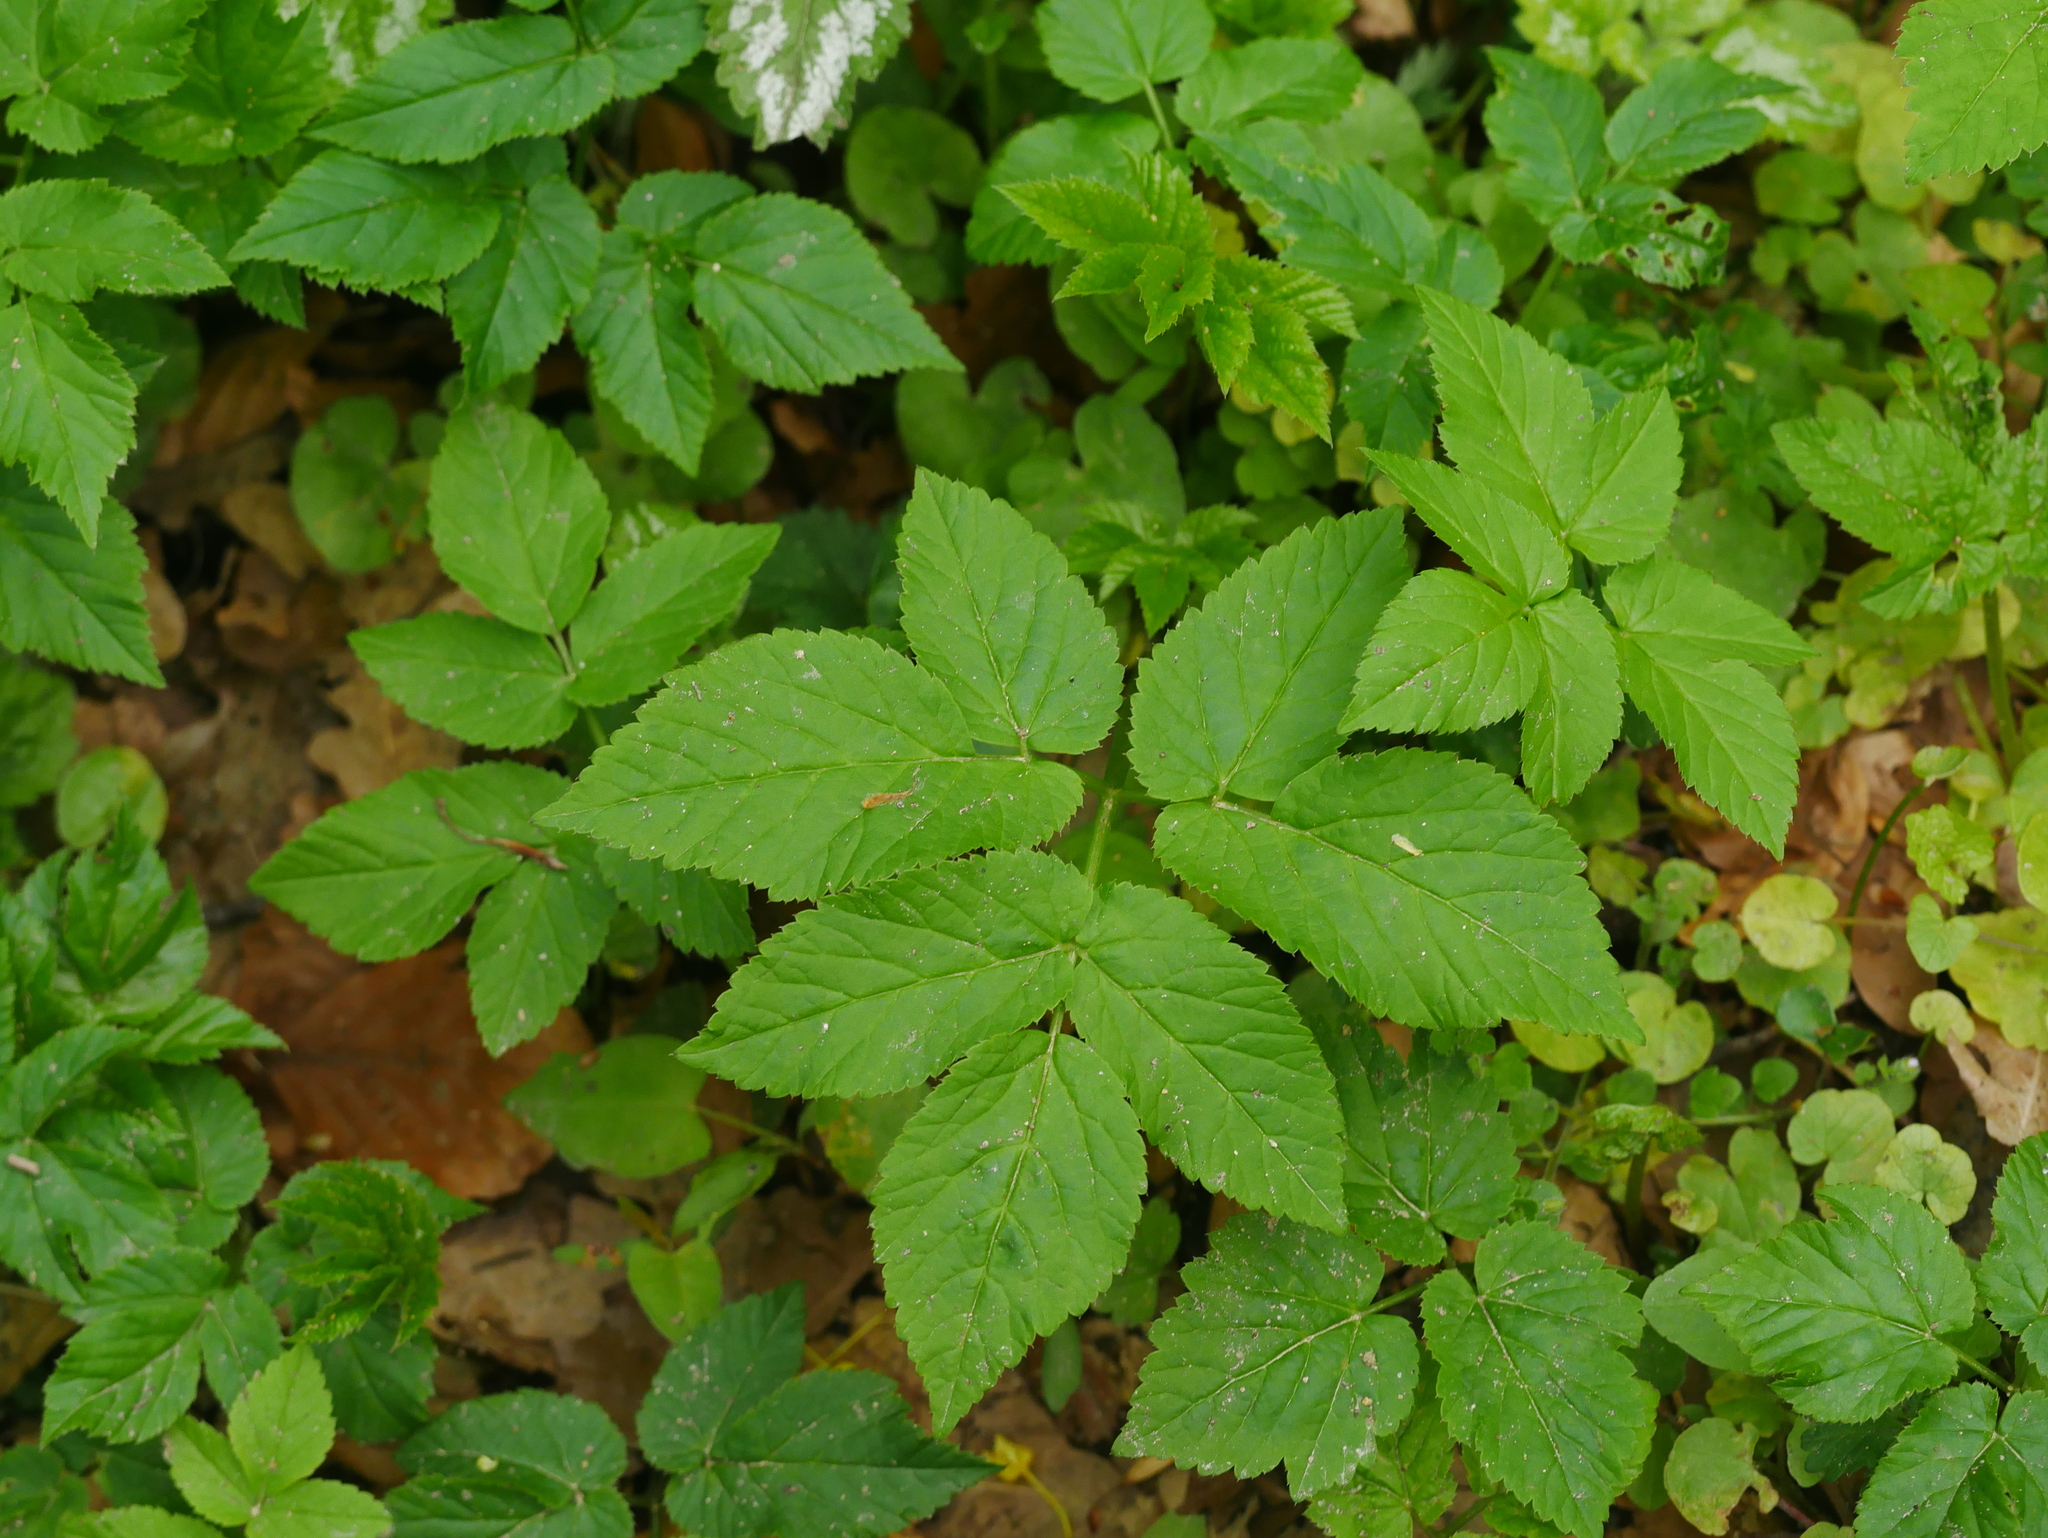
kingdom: Plantae
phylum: Tracheophyta
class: Magnoliopsida
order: Apiales
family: Apiaceae
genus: Aegopodium
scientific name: Aegopodium podagraria
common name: Ground-elder
